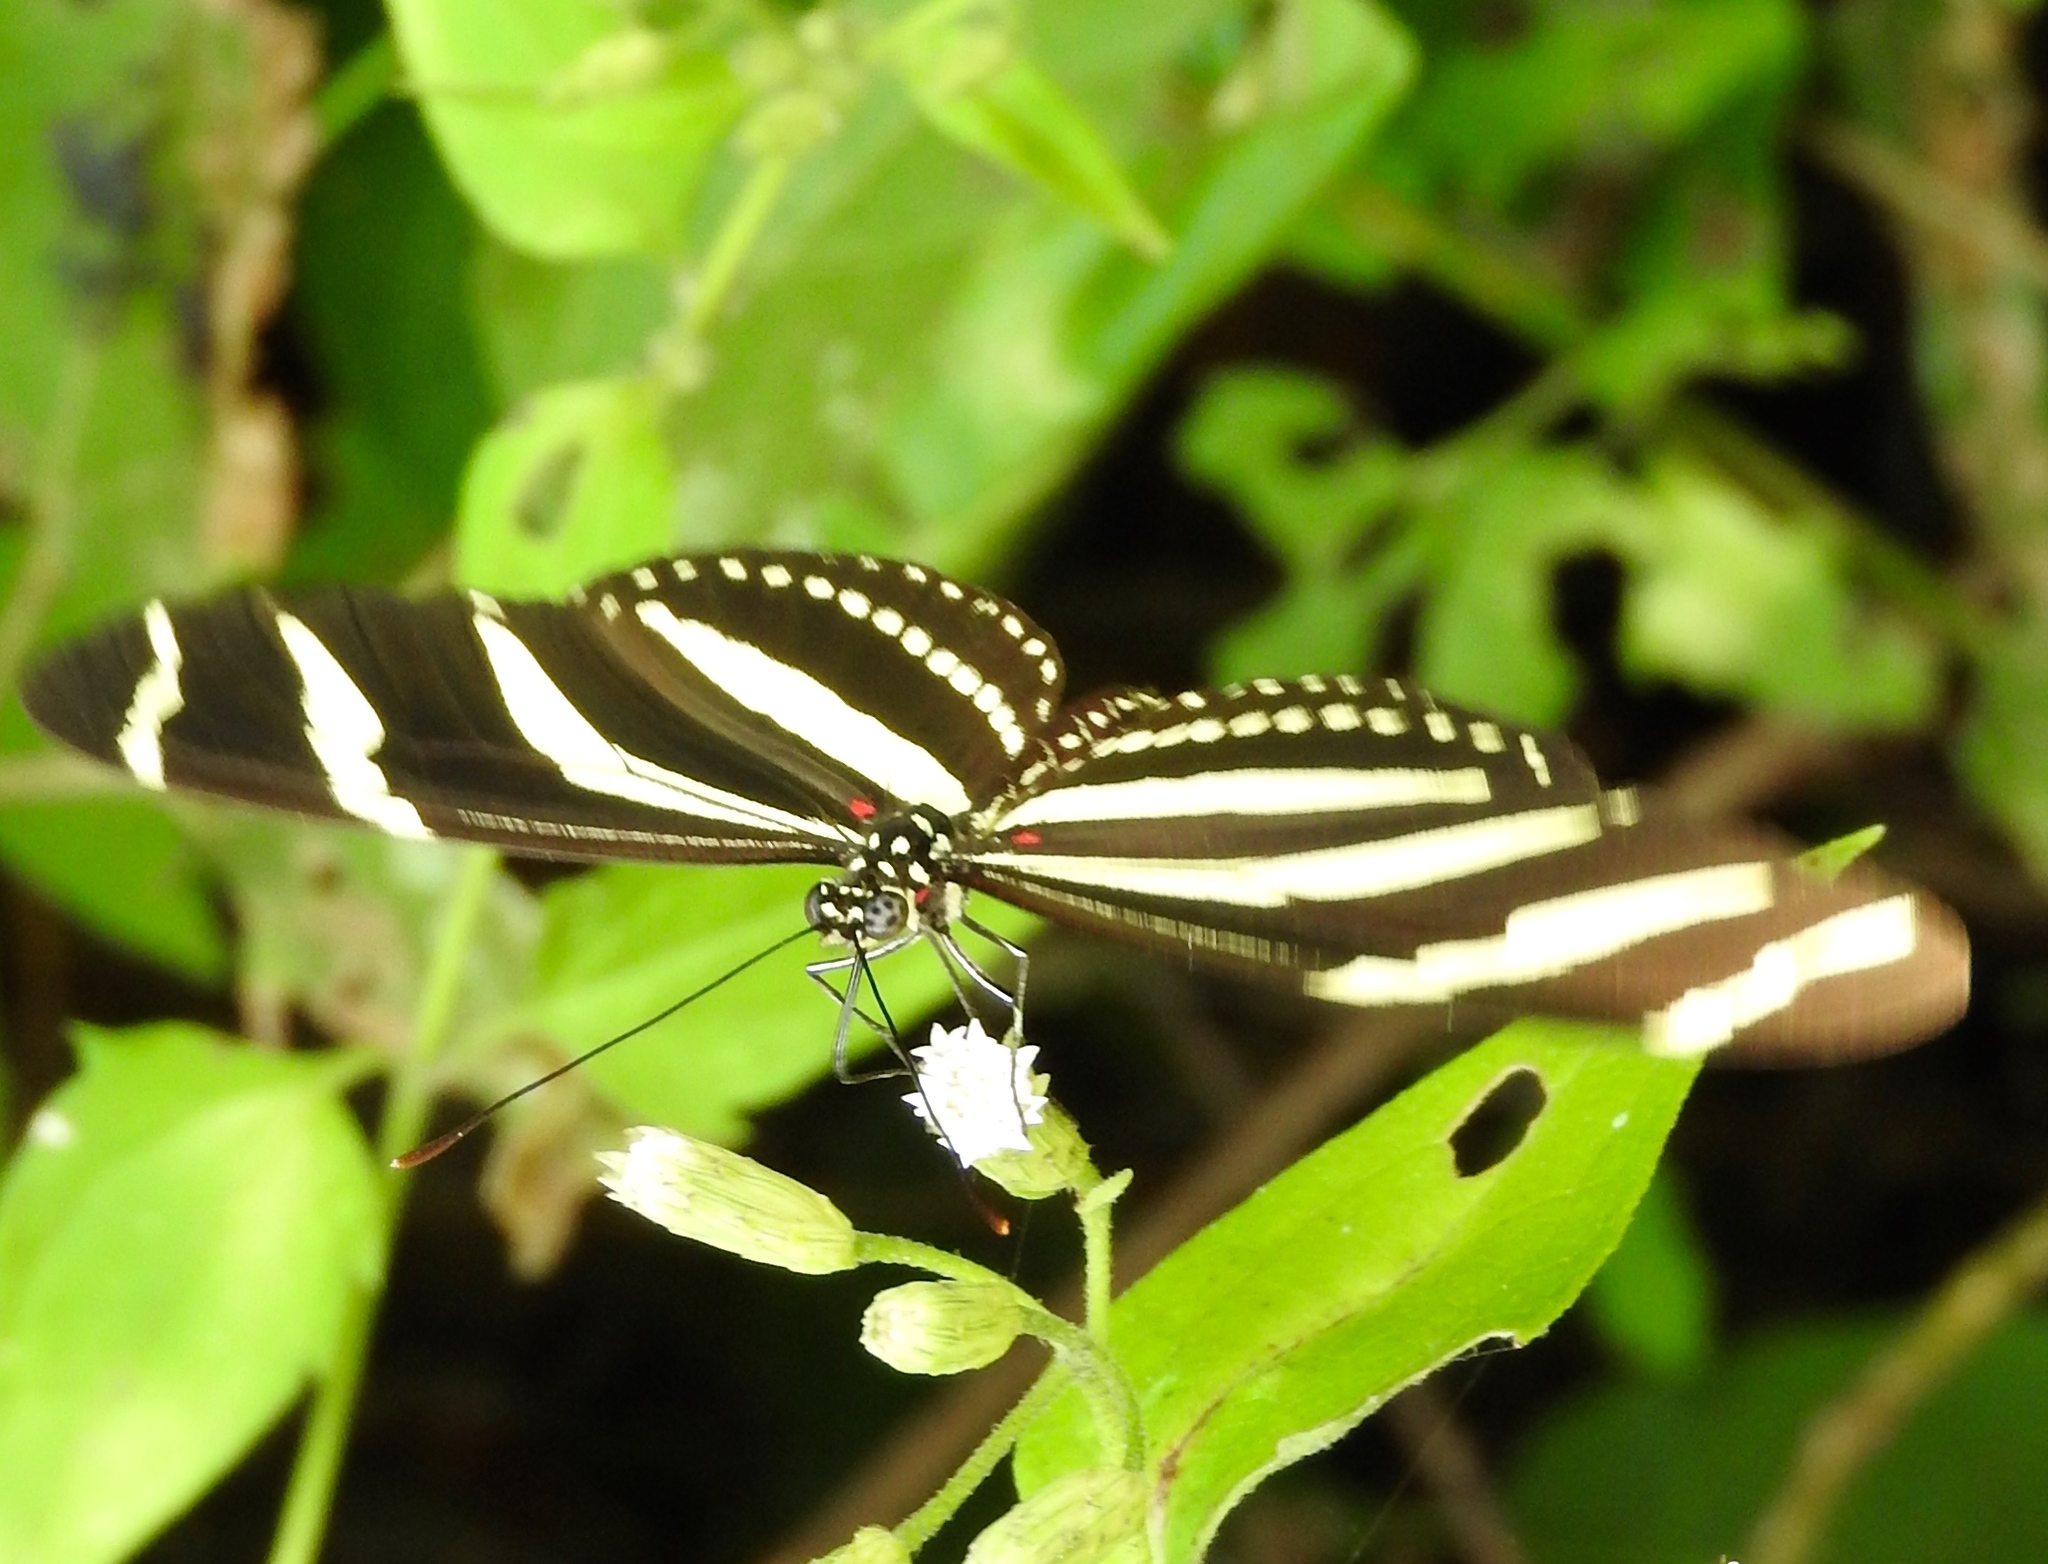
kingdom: Animalia
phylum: Arthropoda
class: Insecta
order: Lepidoptera
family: Nymphalidae
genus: Heliconius
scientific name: Heliconius charithonia
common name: Zebra long wing
